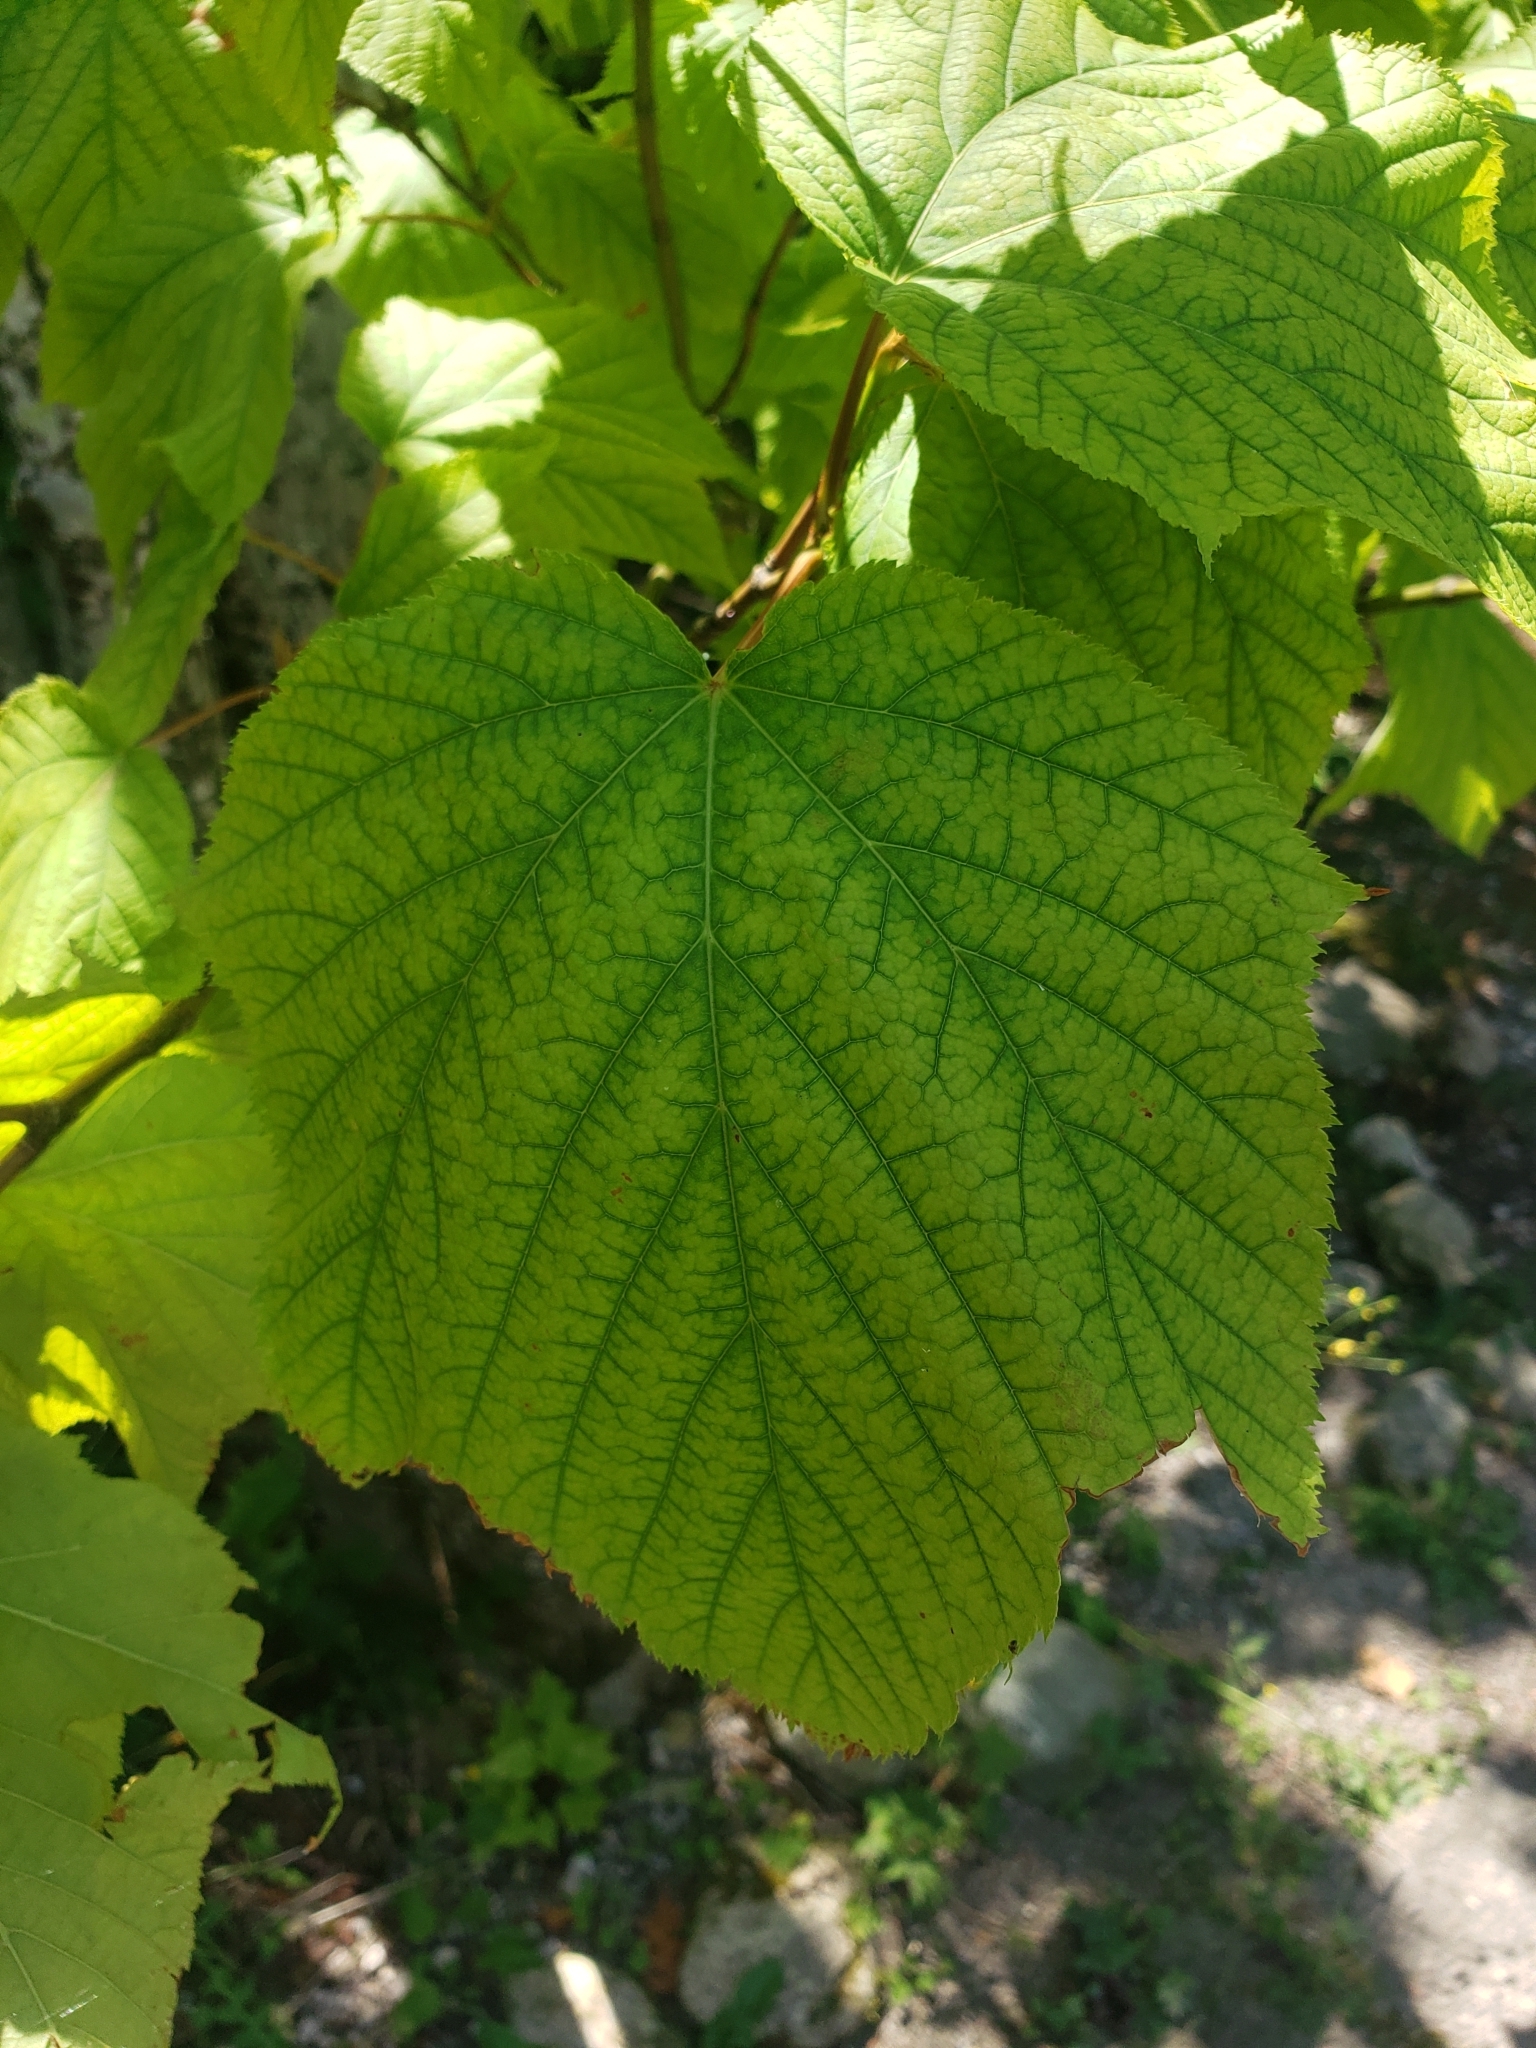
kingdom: Plantae
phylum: Tracheophyta
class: Magnoliopsida
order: Sapindales
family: Sapindaceae
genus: Acer
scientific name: Acer pensylvanicum
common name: Moosewood
